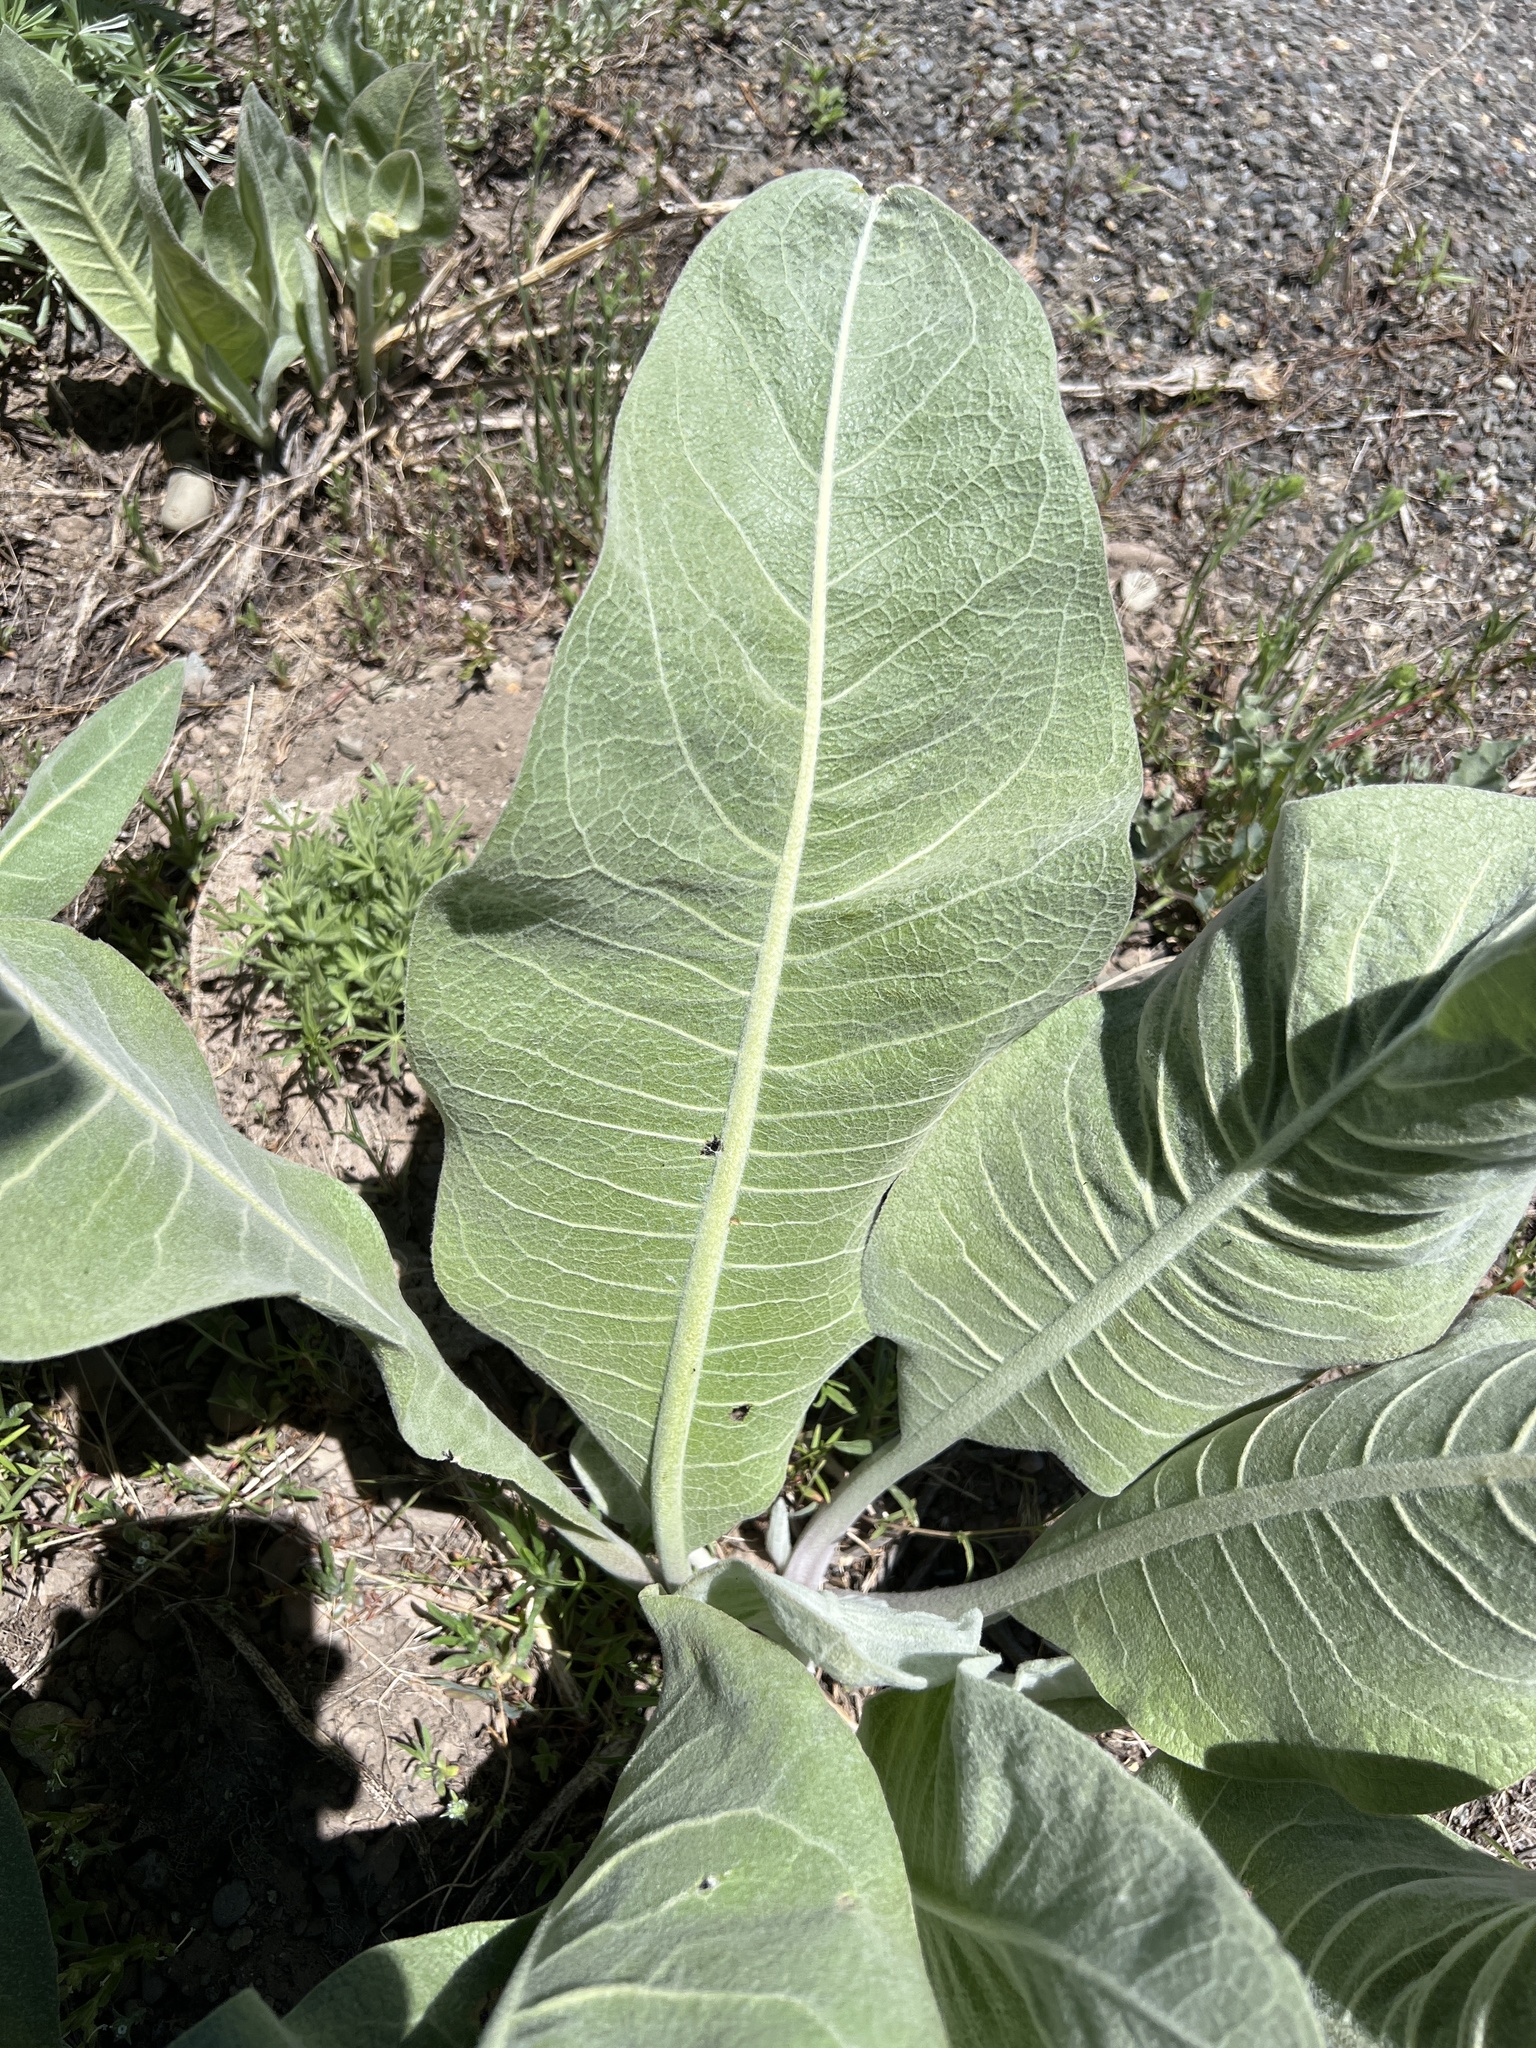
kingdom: Plantae
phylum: Tracheophyta
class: Magnoliopsida
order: Asterales
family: Asteraceae
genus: Wyethia
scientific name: Wyethia mollis
